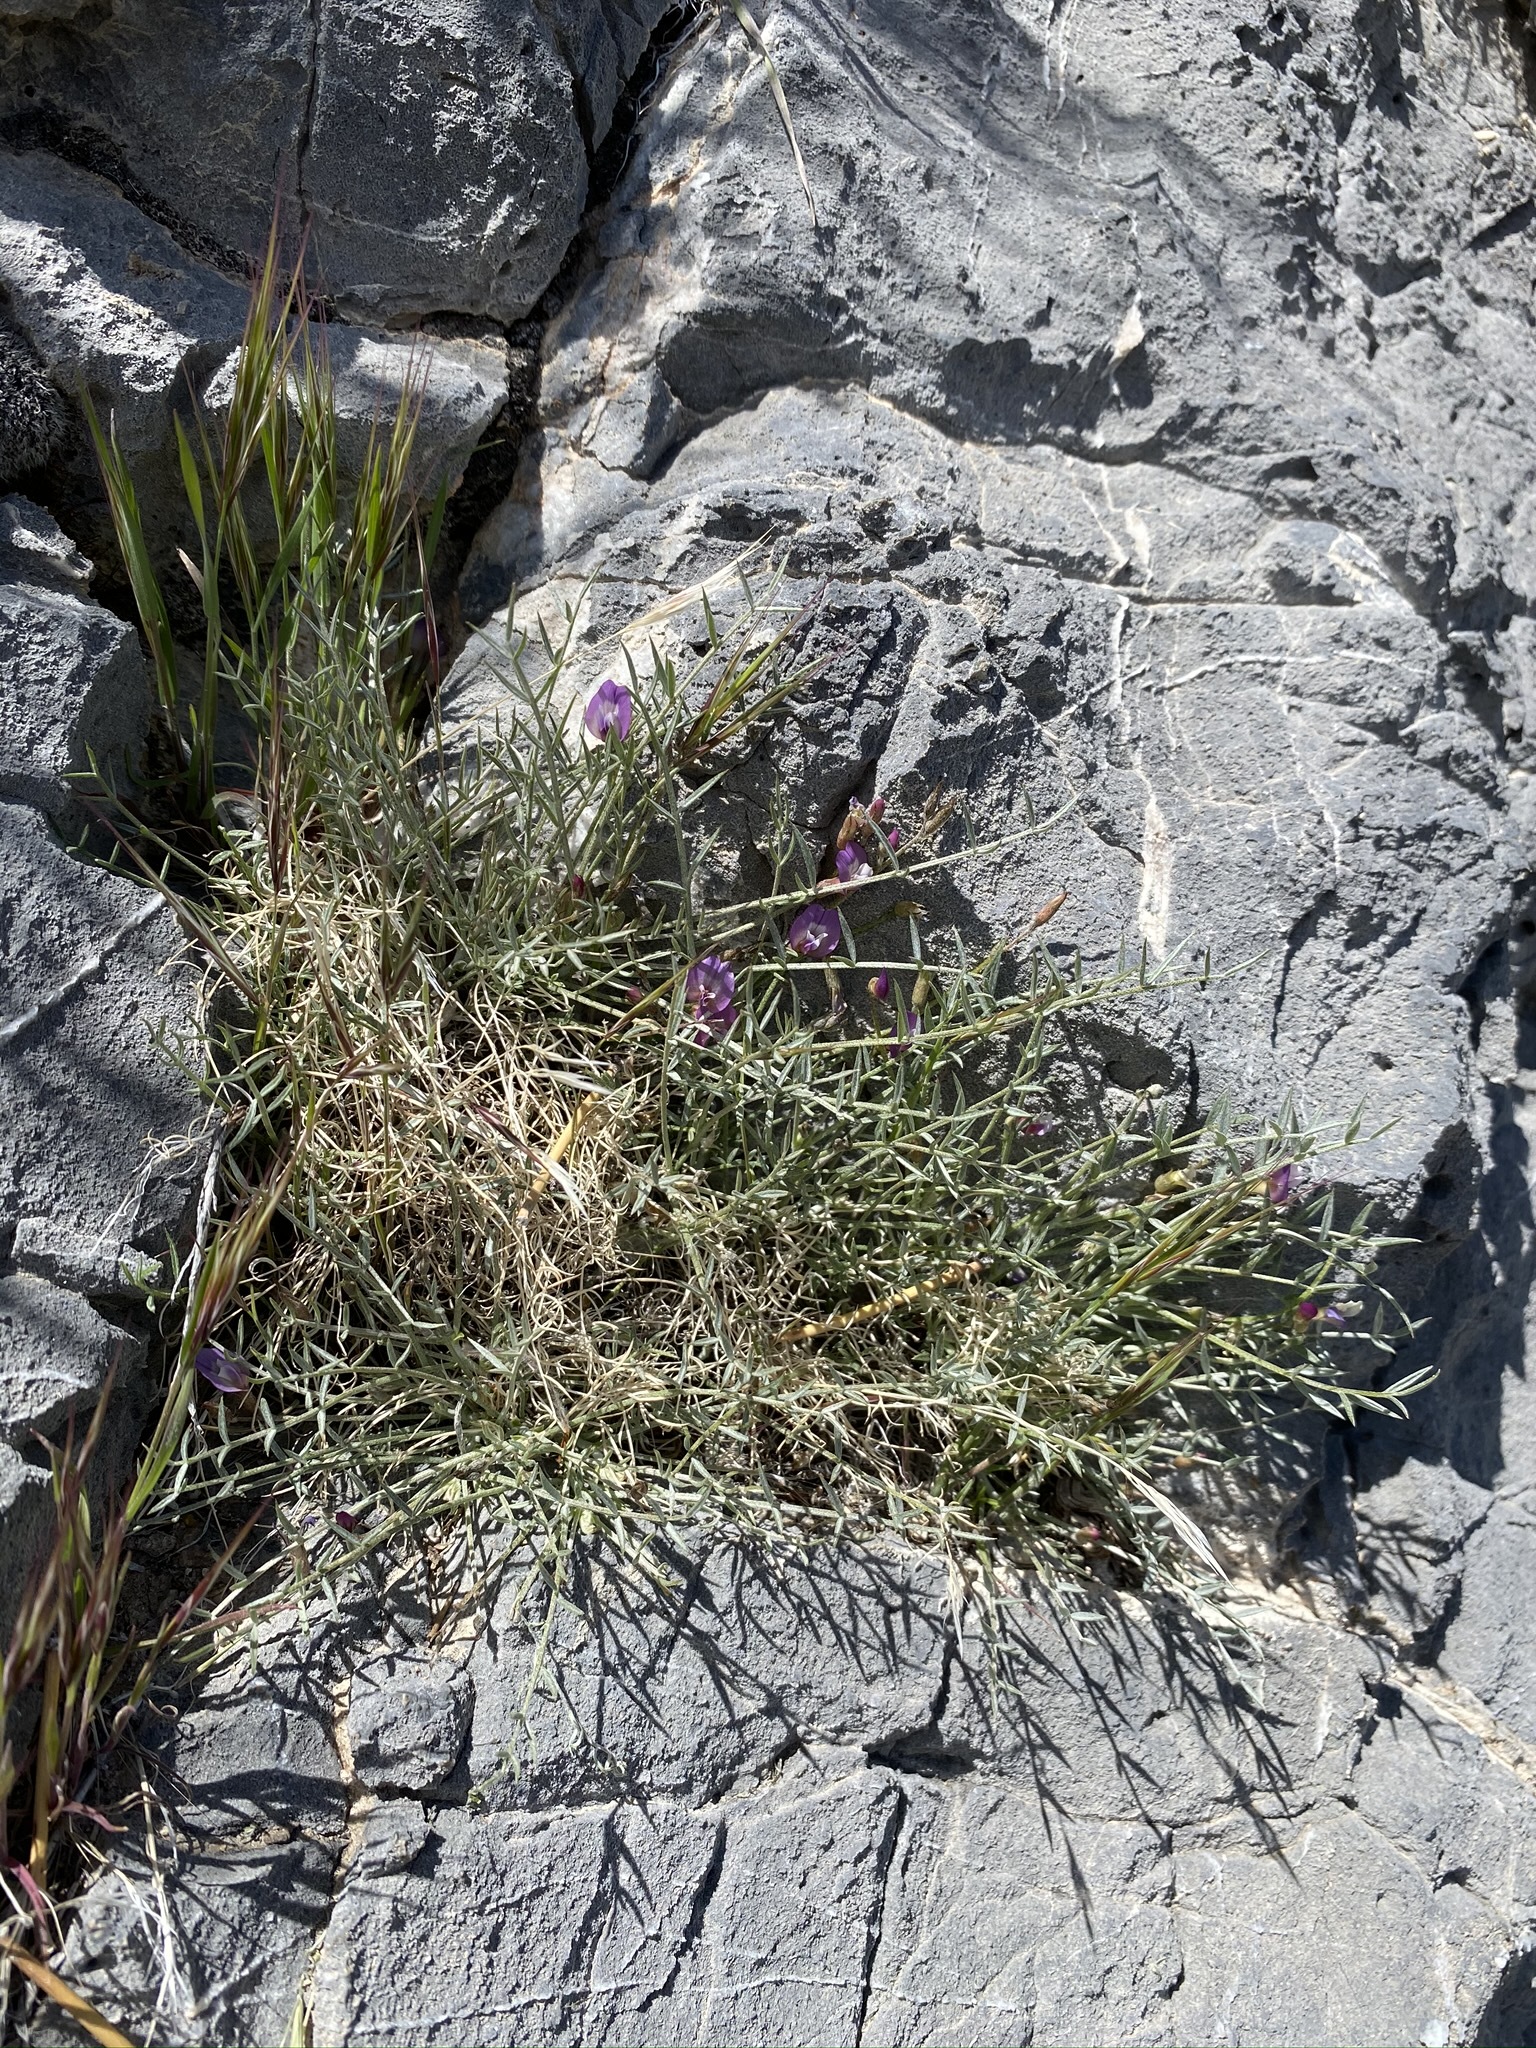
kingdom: Plantae
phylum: Tracheophyta
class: Magnoliopsida
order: Fabales
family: Fabaceae
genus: Astragalus
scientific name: Astragalus panamintensis
